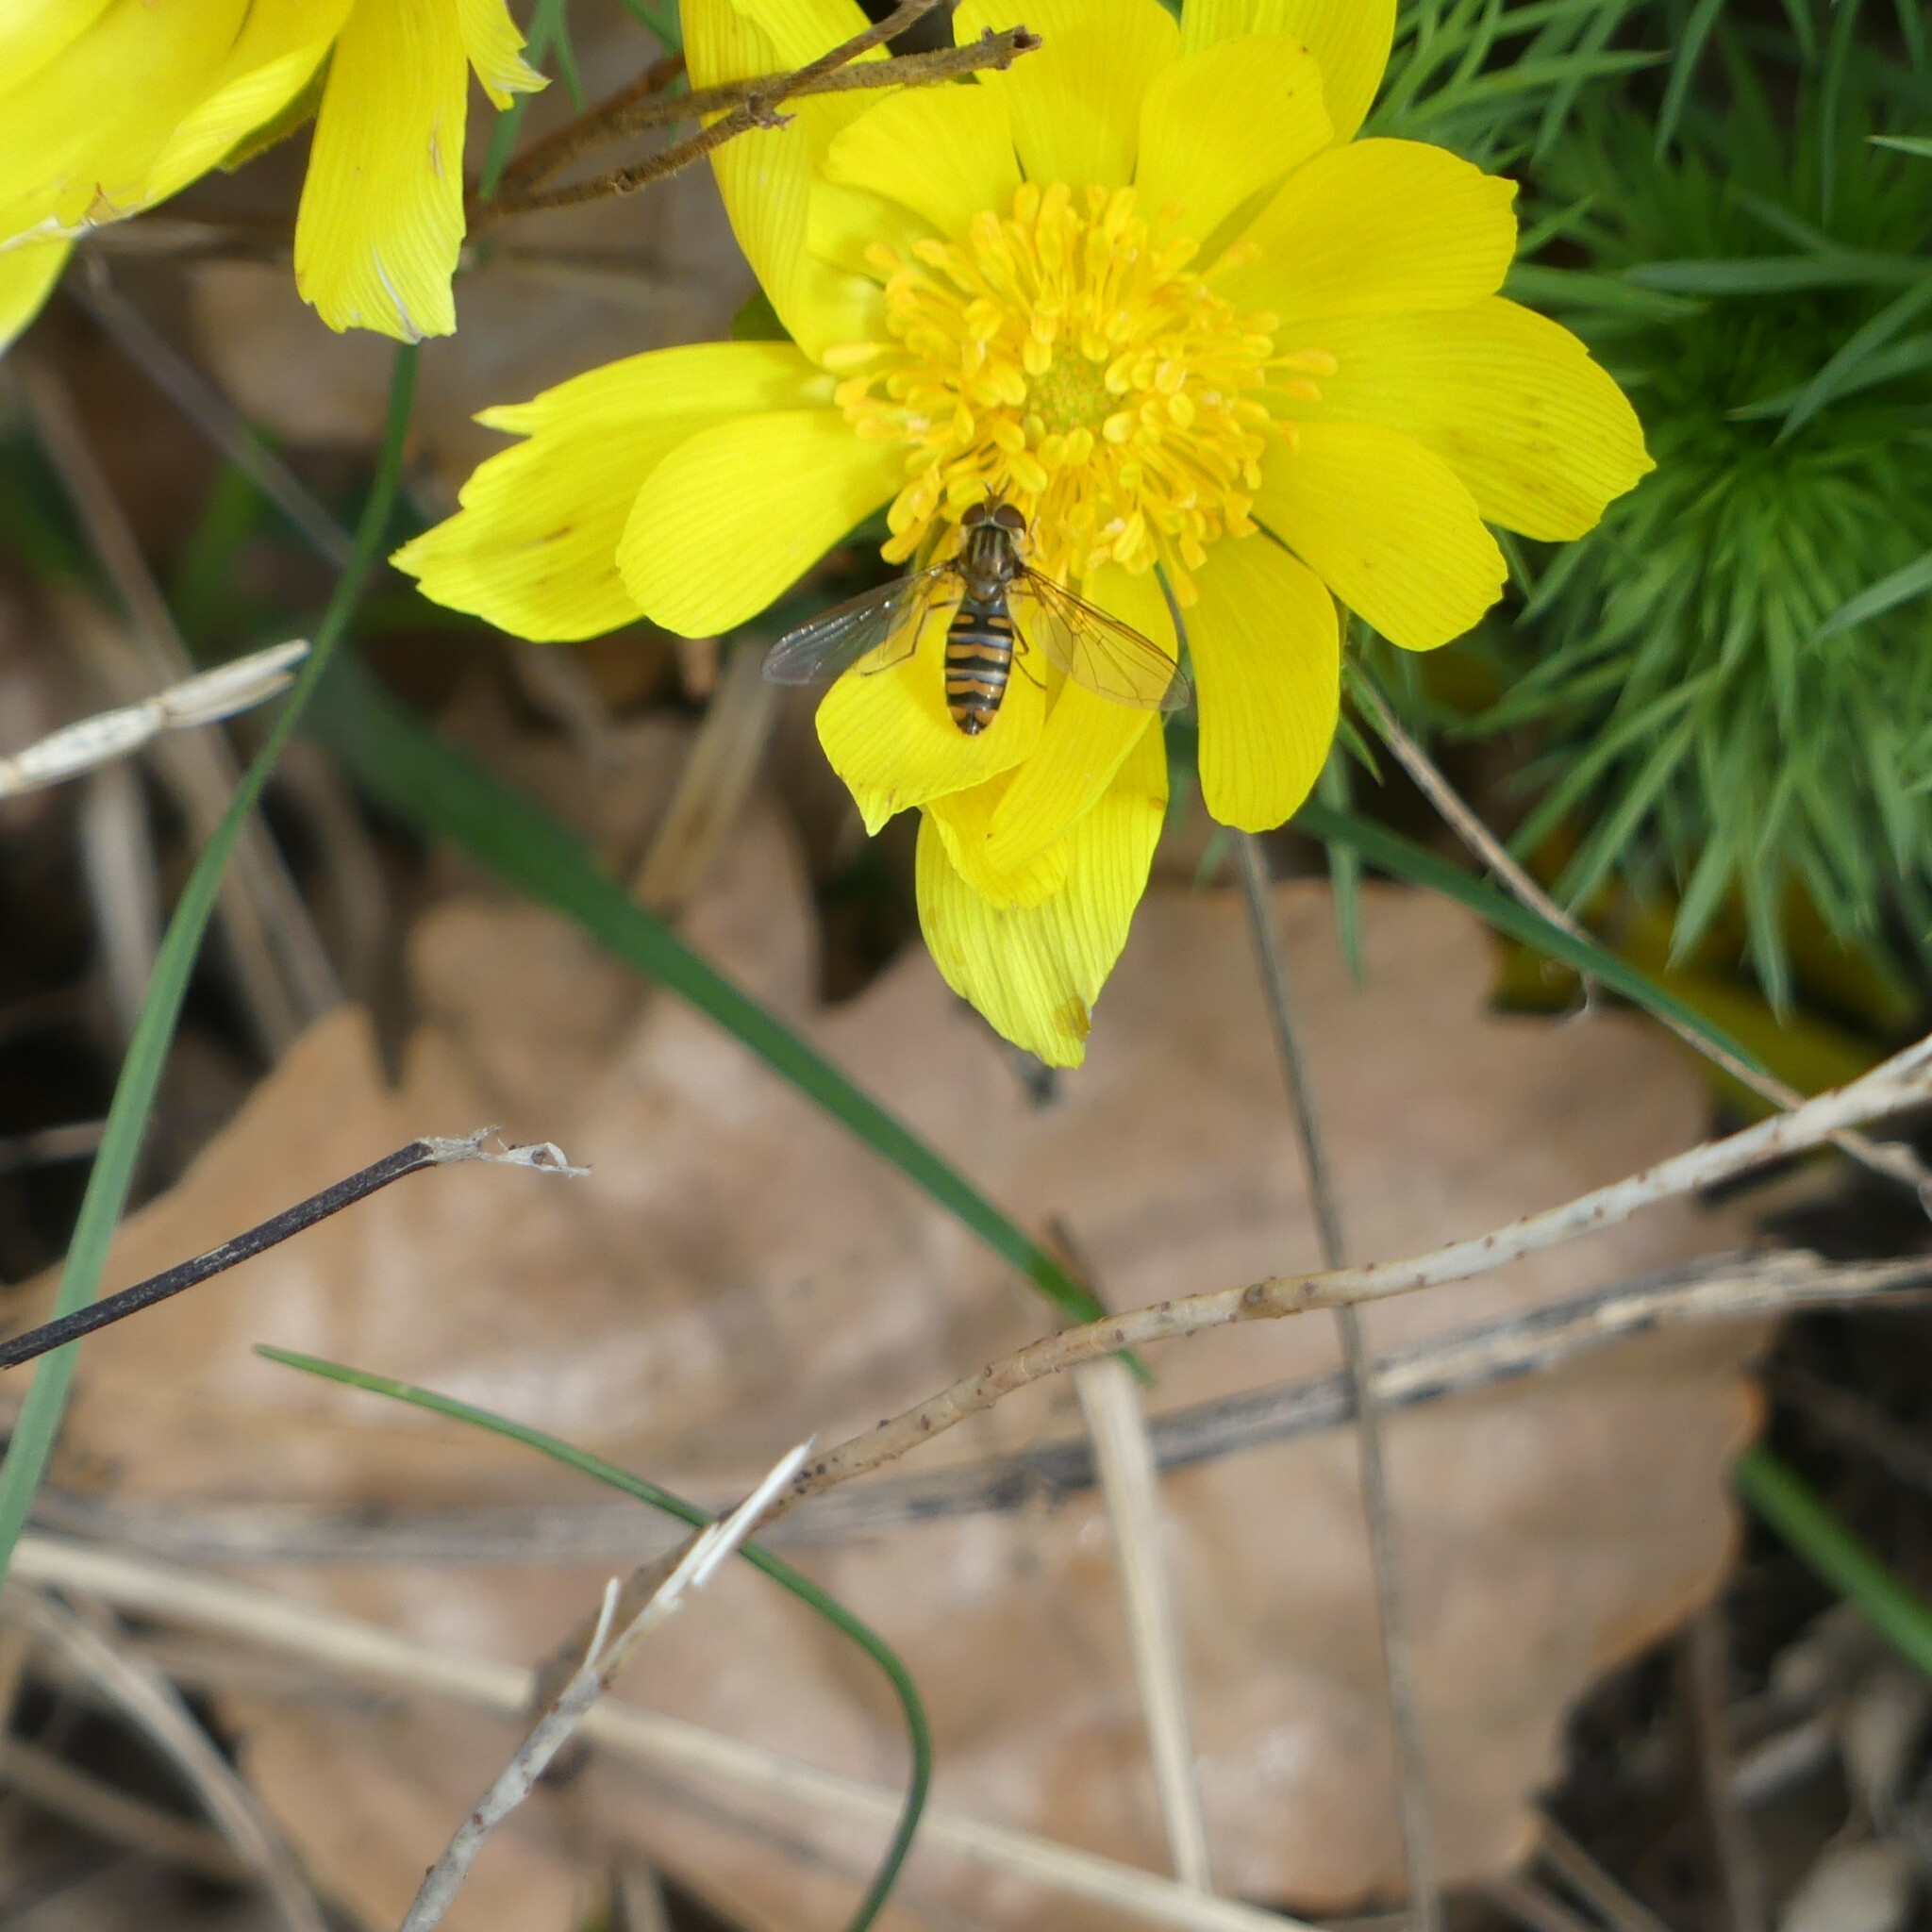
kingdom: Animalia
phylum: Arthropoda
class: Insecta
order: Diptera
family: Syrphidae
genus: Episyrphus
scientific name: Episyrphus balteatus
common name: Marmalade hoverfly
